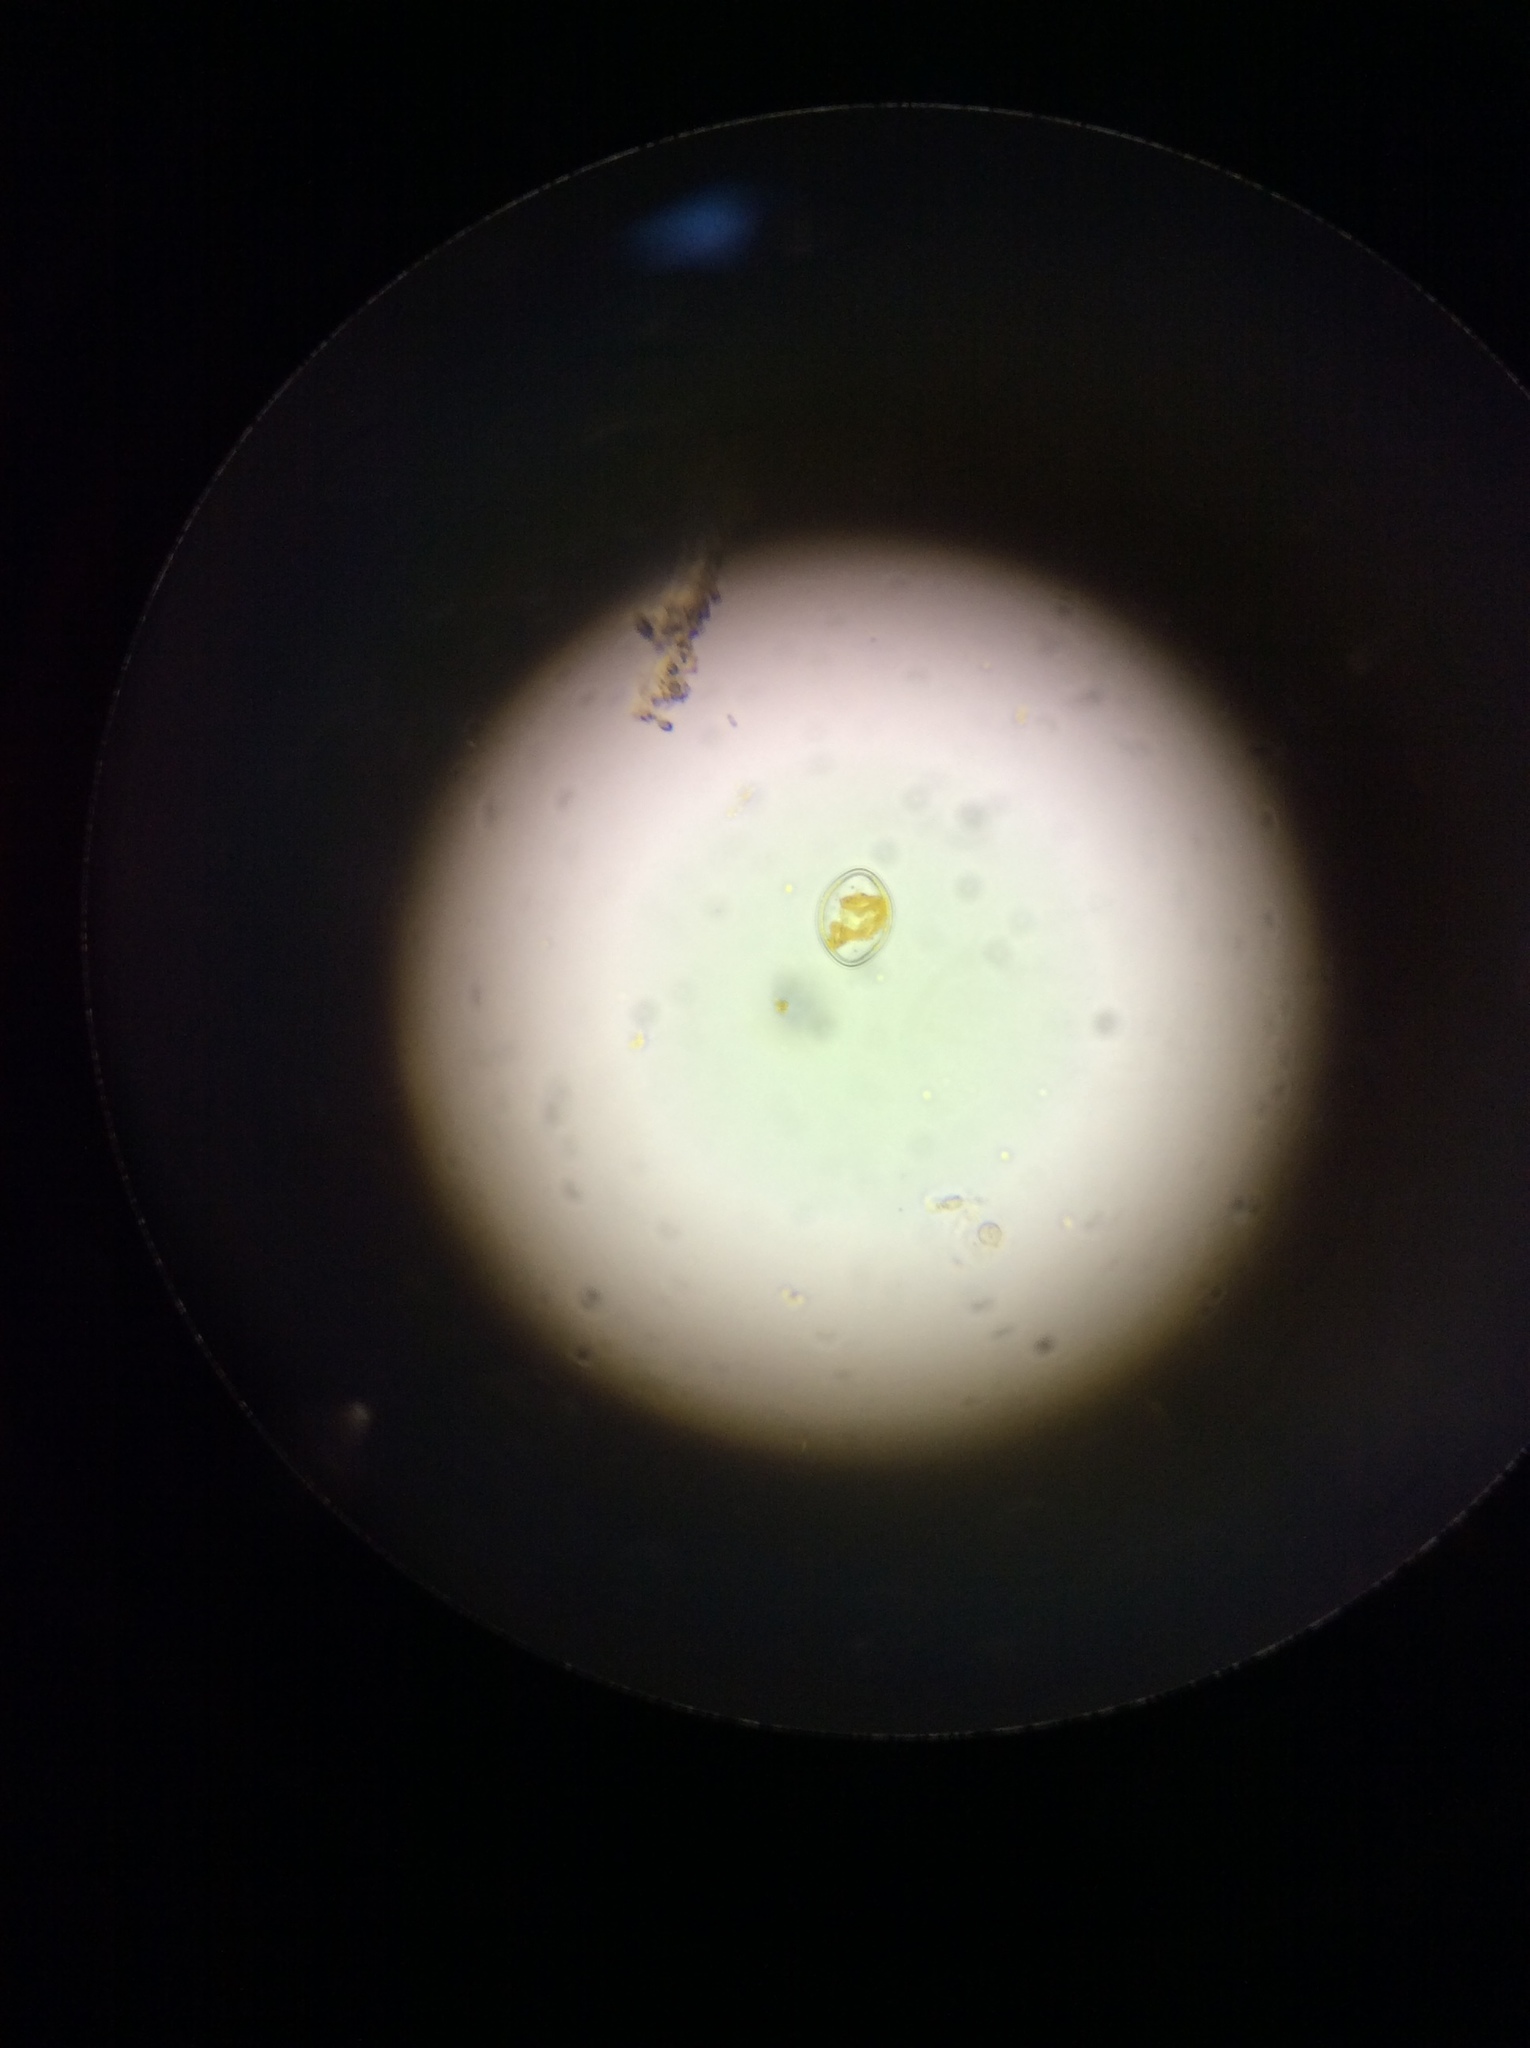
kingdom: Chromista
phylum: Ochrophyta
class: Bacillariophyceae
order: Achnanthales
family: Cocconeidaceae
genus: Cocconeis
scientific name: Cocconeis pediculus
